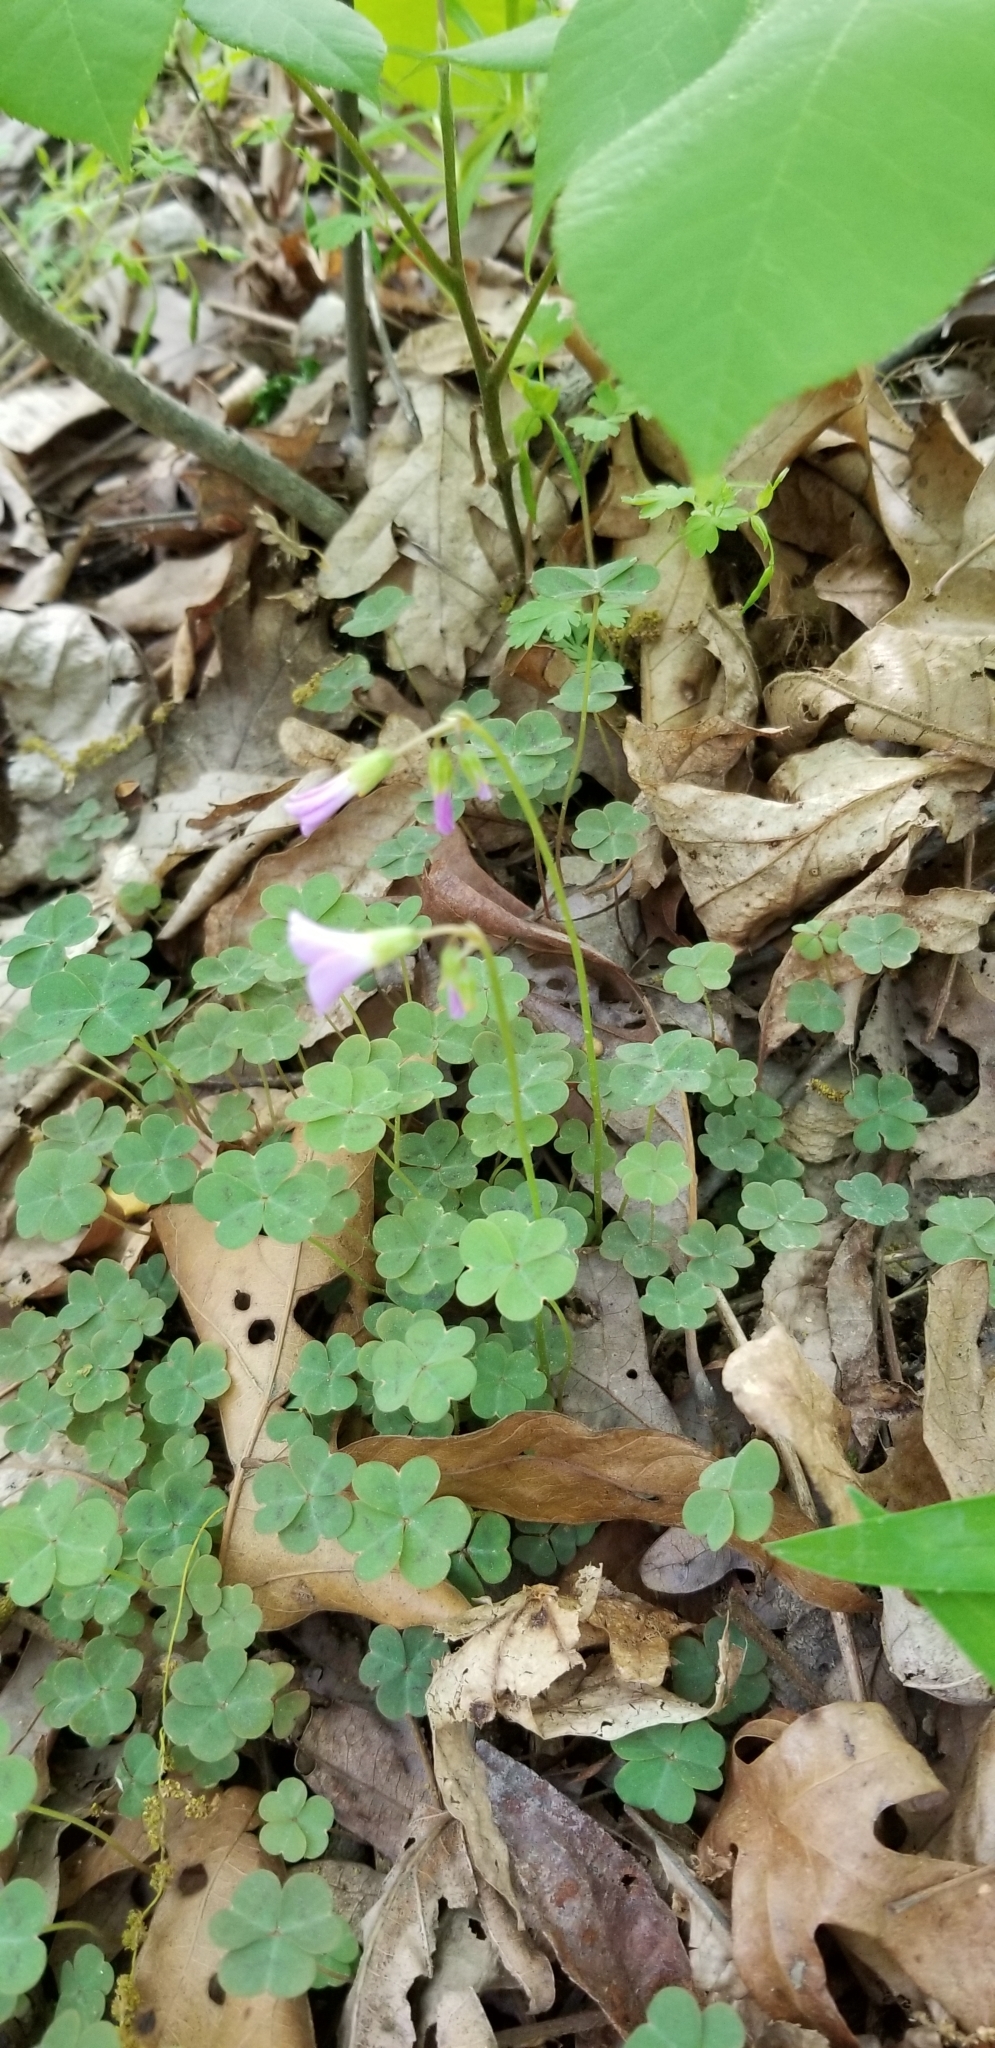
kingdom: Plantae
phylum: Tracheophyta
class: Magnoliopsida
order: Oxalidales
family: Oxalidaceae
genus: Oxalis
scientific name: Oxalis violacea
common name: Violet wood-sorrel
